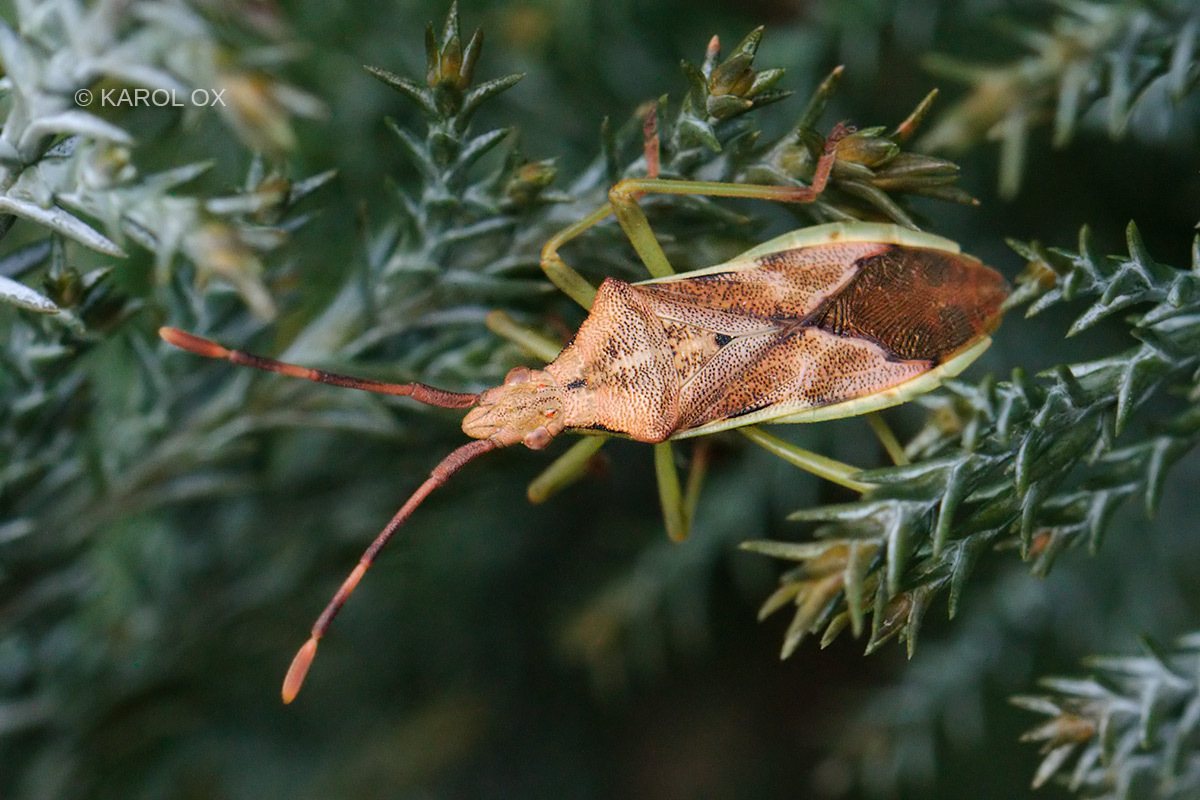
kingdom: Animalia
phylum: Arthropoda
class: Insecta
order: Hemiptera
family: Coreidae
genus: Gonocerus
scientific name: Gonocerus juniperi
